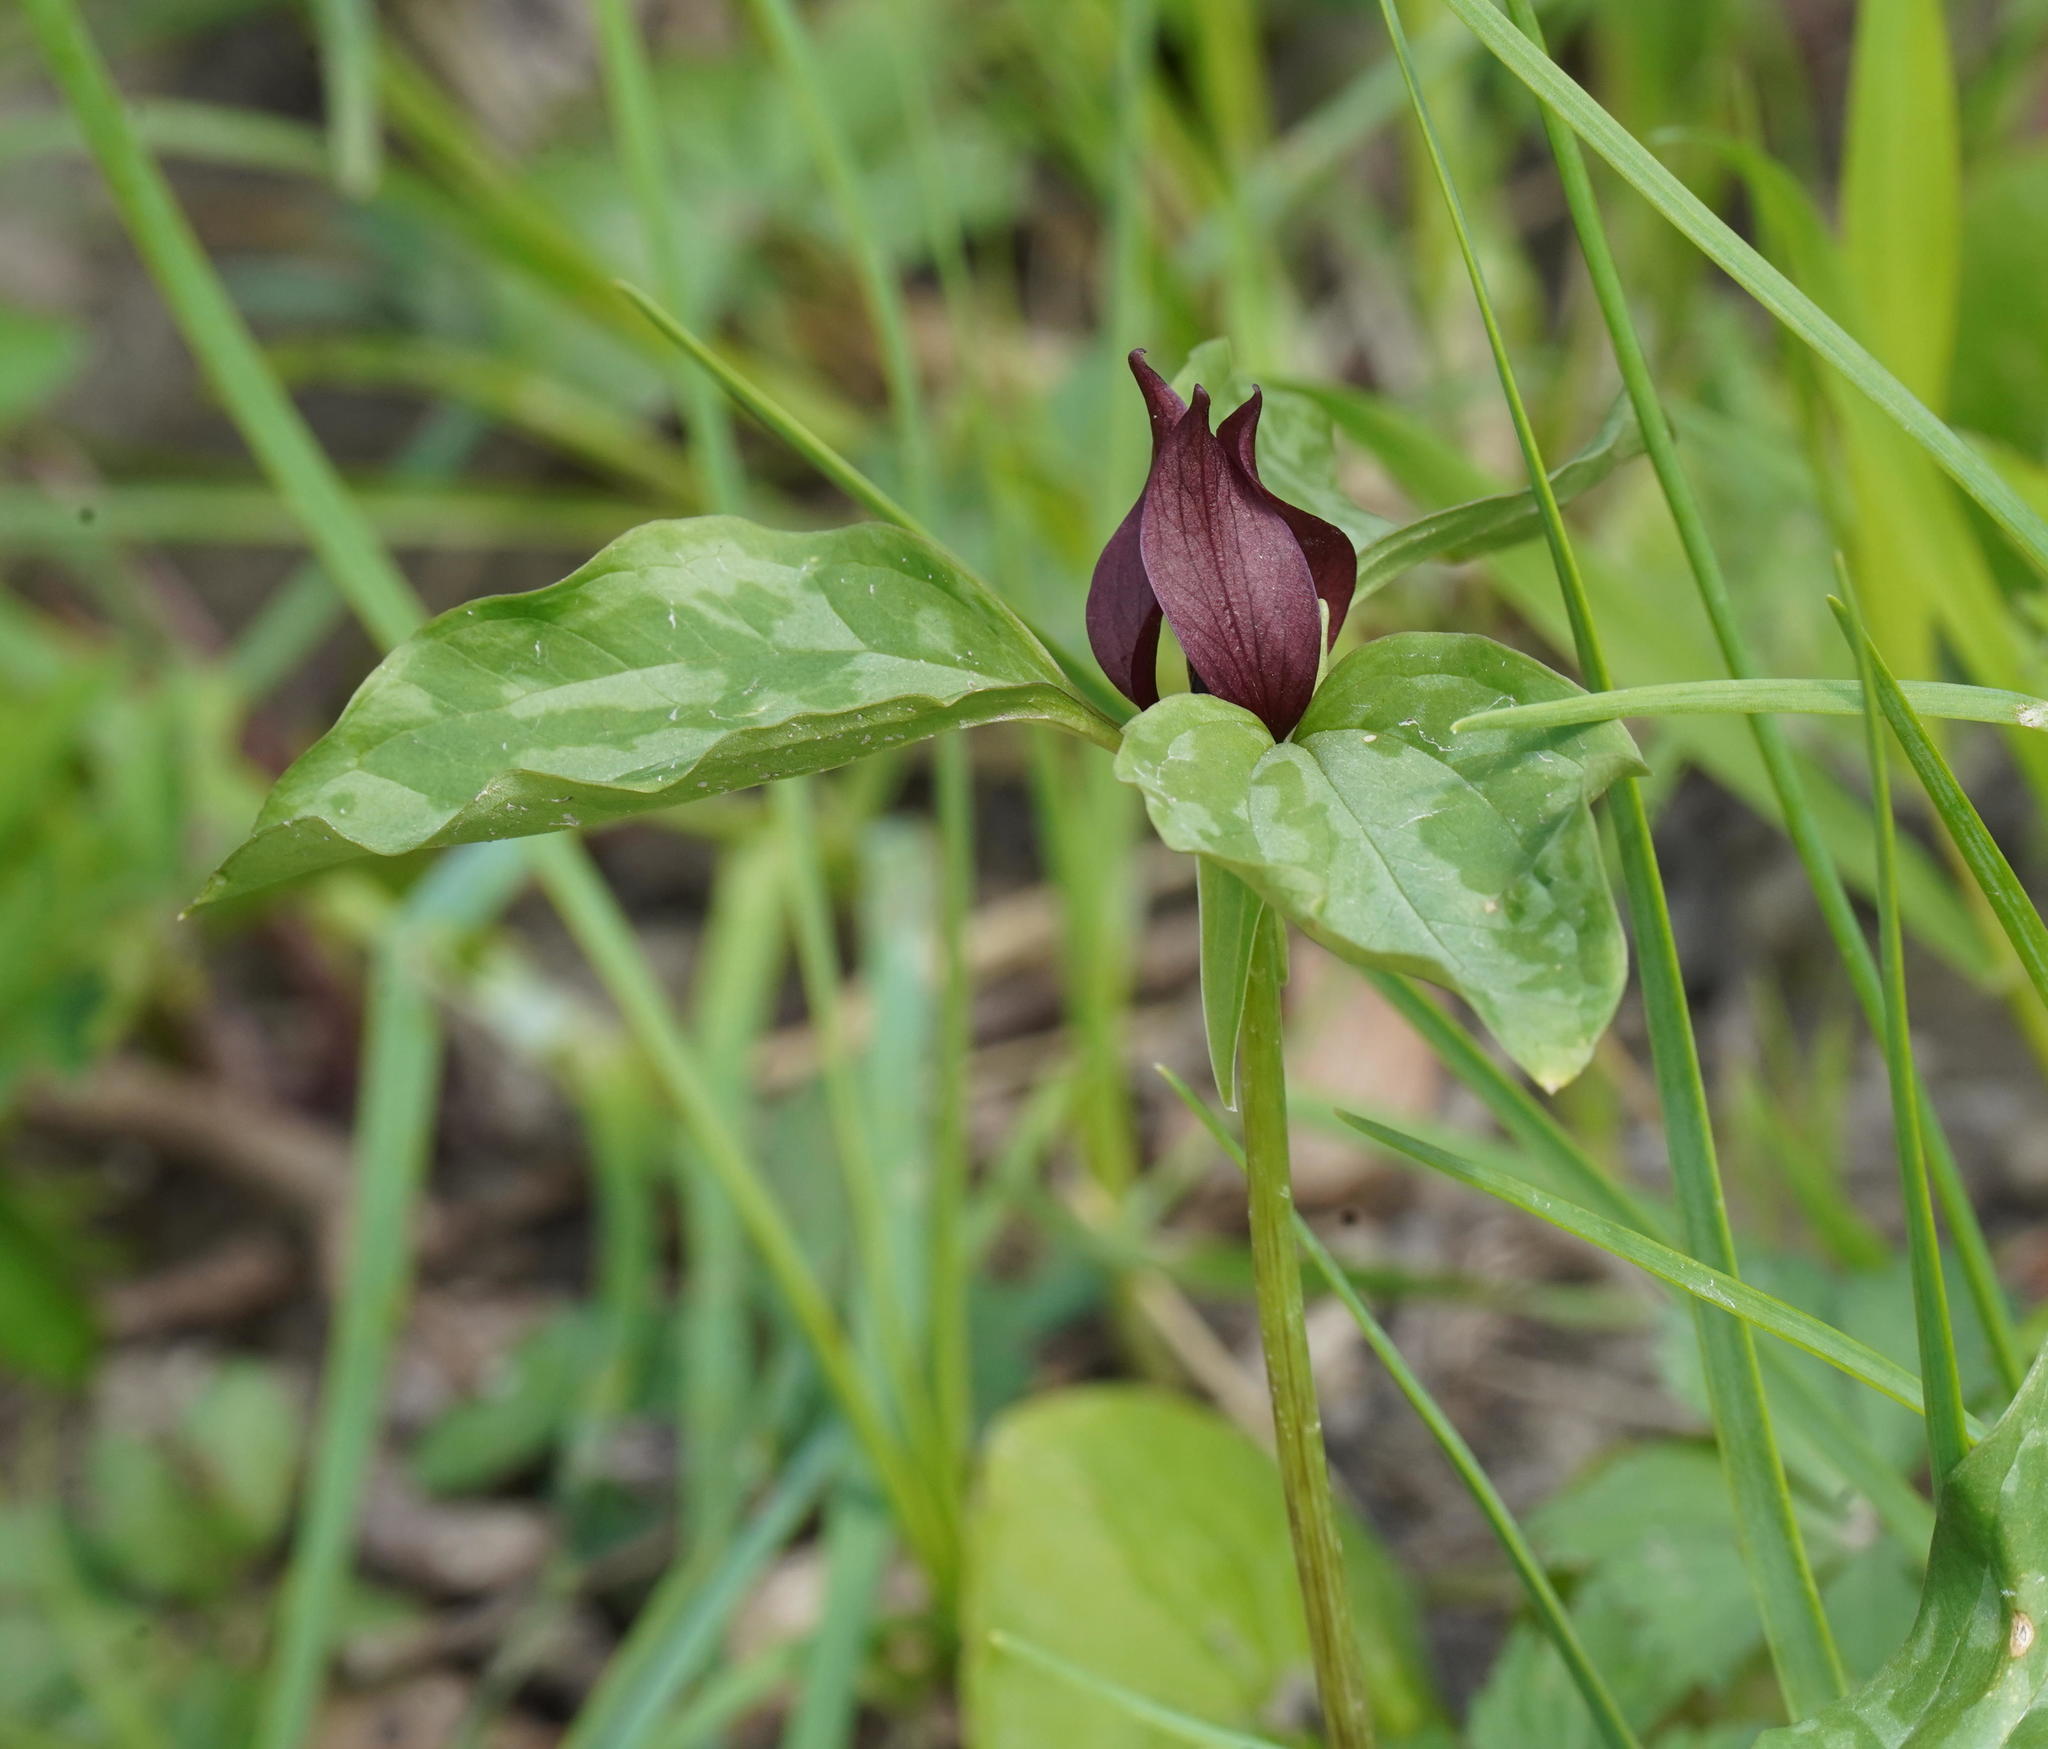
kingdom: Plantae
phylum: Tracheophyta
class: Liliopsida
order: Liliales
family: Melanthiaceae
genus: Trillium
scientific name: Trillium recurvatum
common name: Bloody butcher
